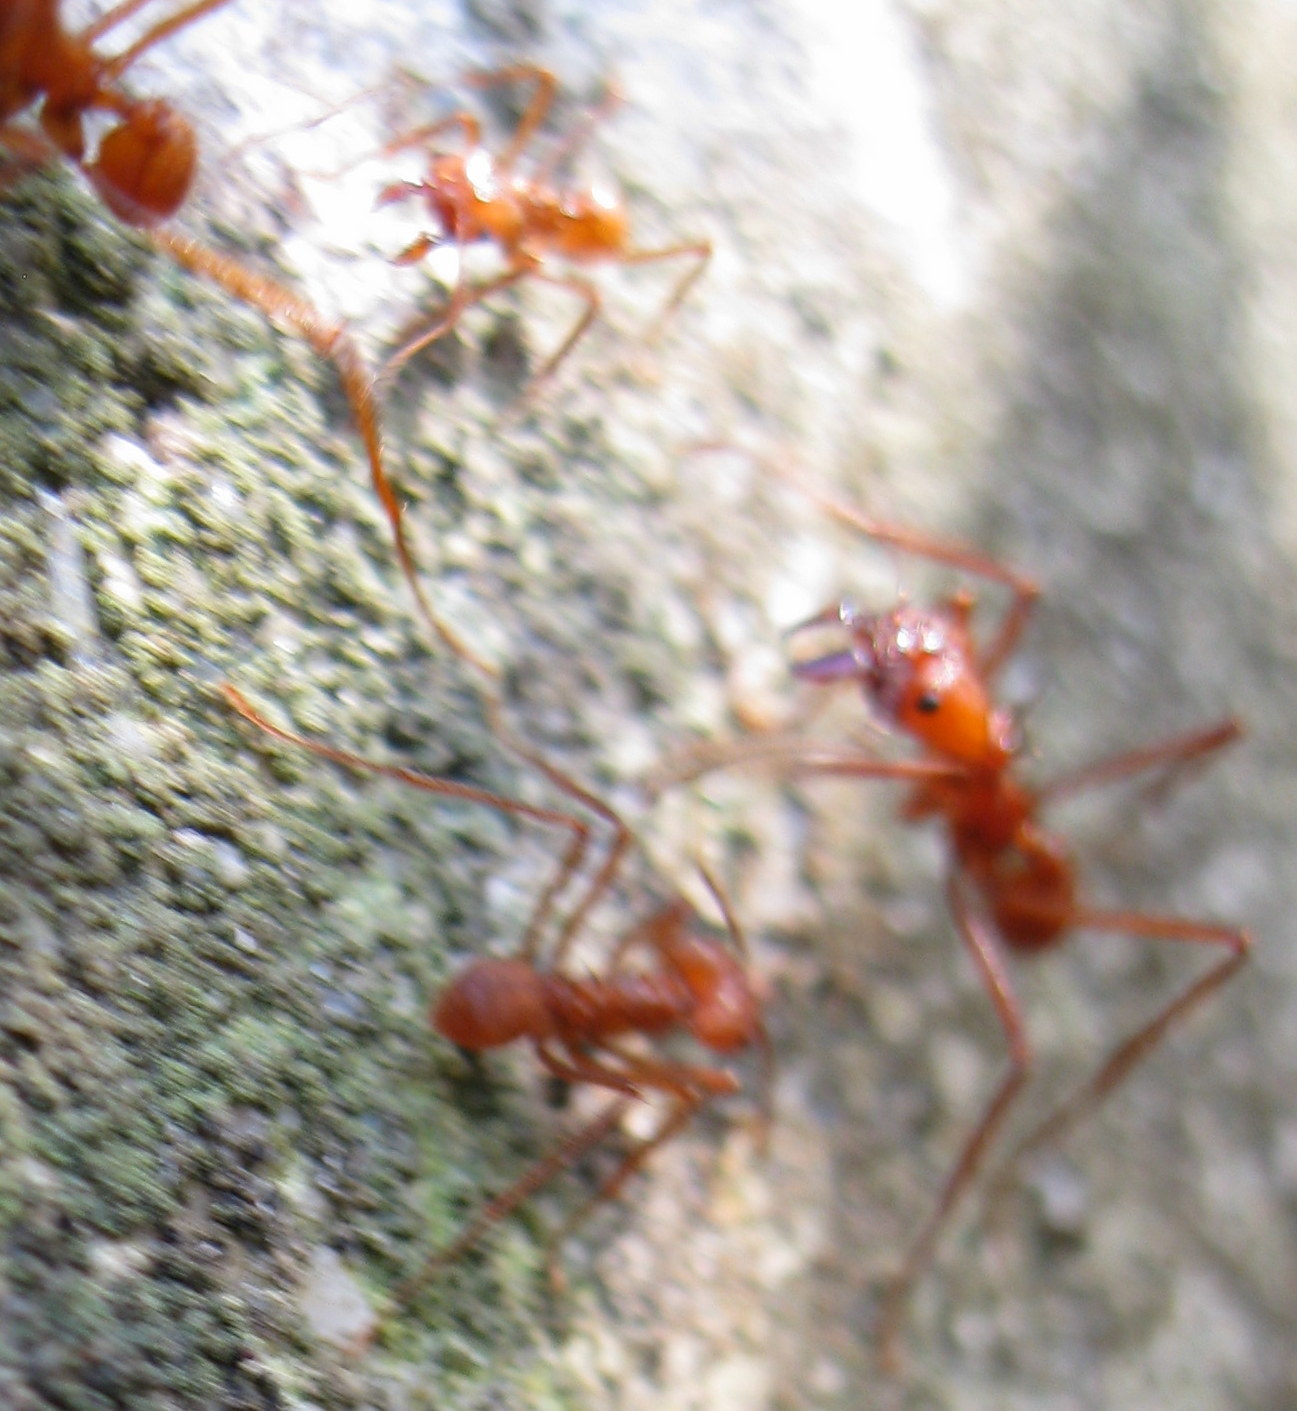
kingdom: Animalia
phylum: Arthropoda
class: Insecta
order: Hymenoptera
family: Formicidae
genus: Atta
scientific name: Atta cephalotes
